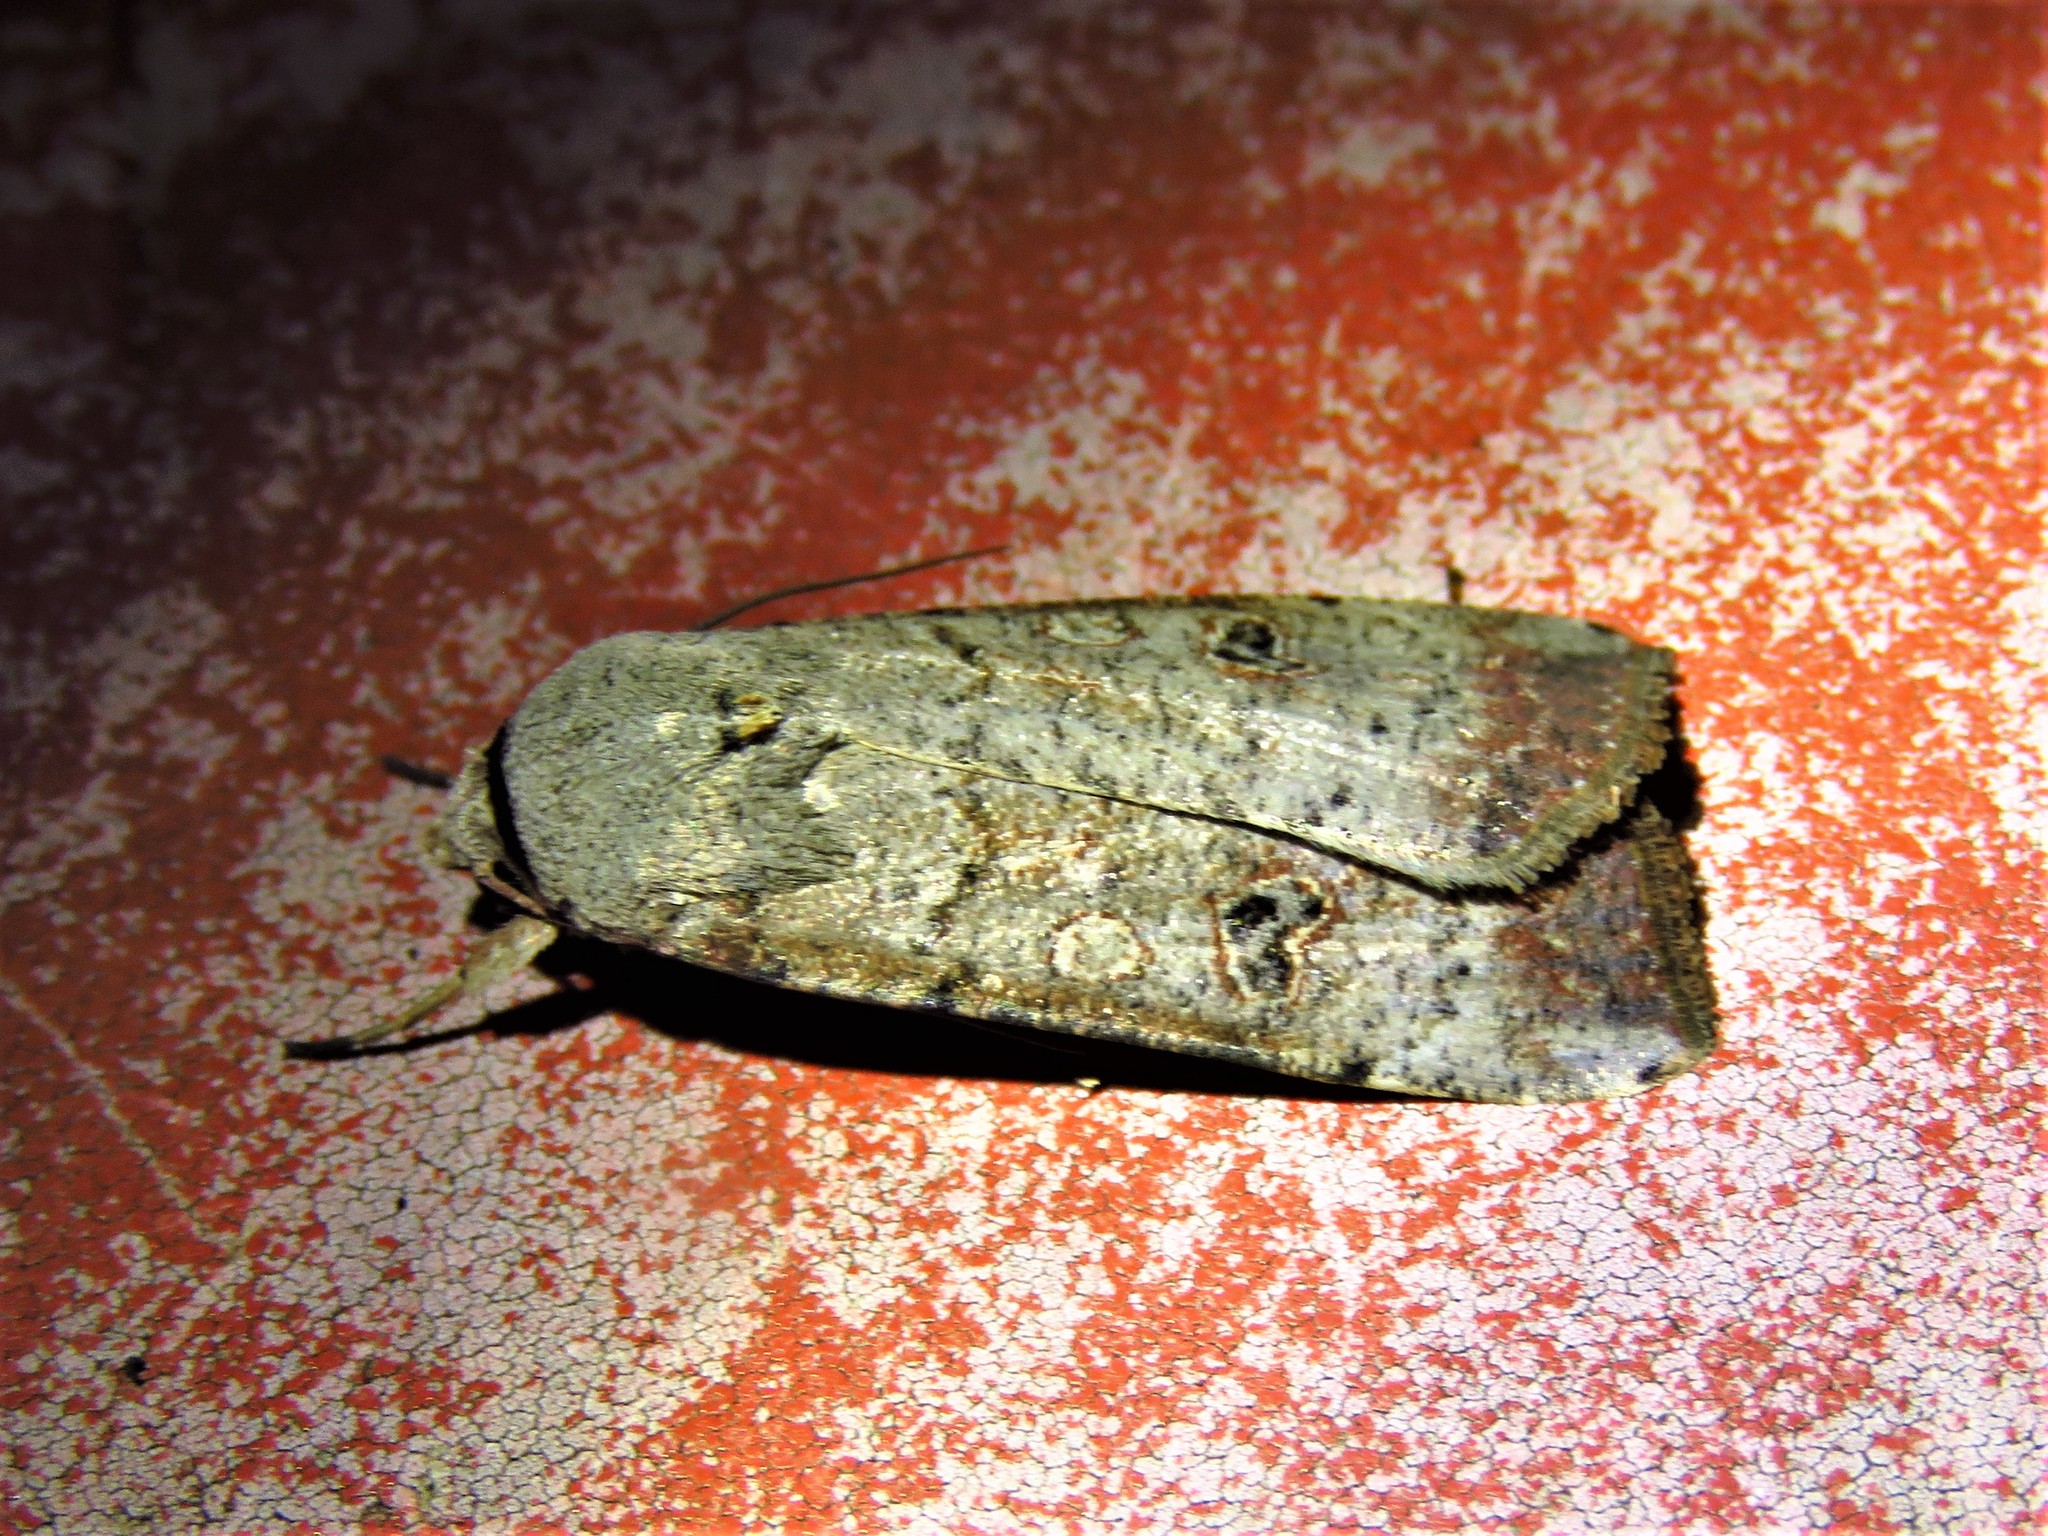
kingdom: Animalia
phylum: Arthropoda
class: Insecta
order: Lepidoptera
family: Noctuidae
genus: Anicla
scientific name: Anicla infecta
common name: Green cutworm
